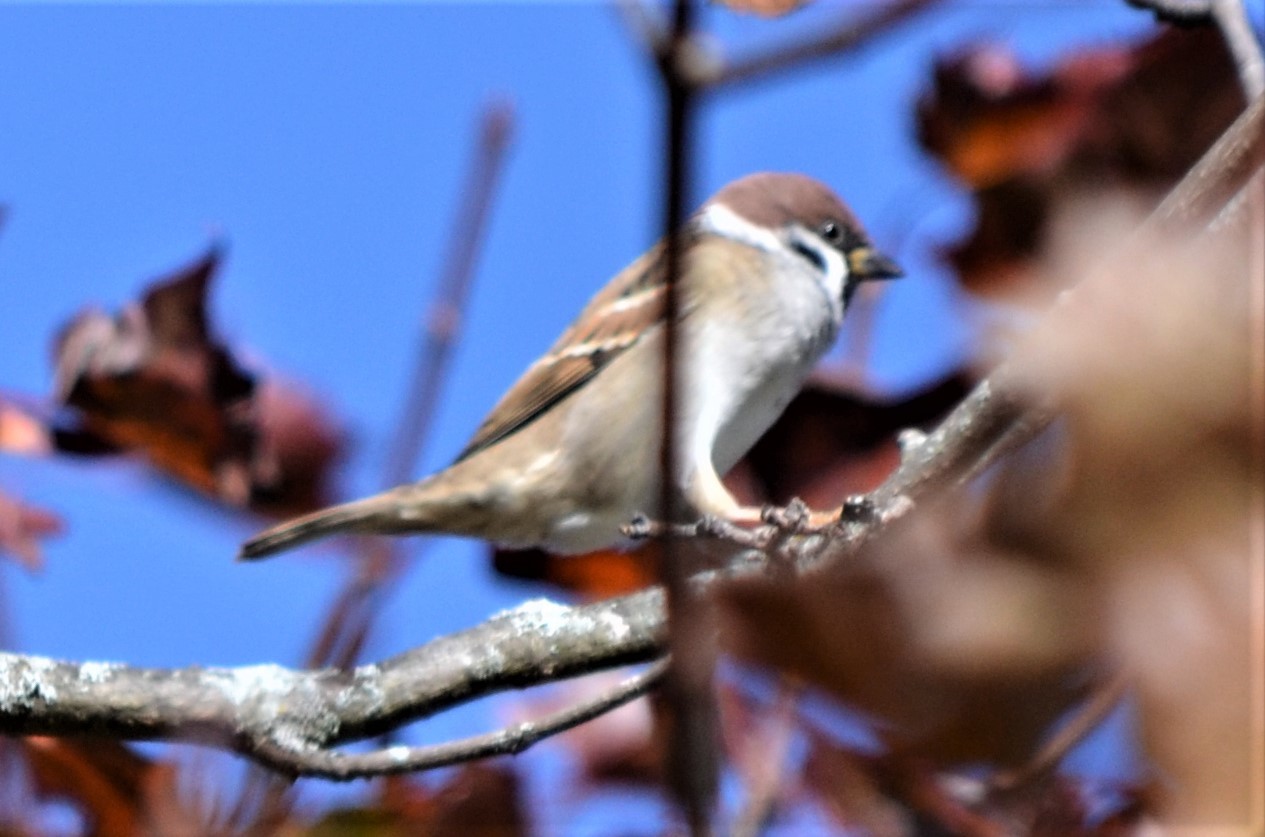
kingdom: Animalia
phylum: Chordata
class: Aves
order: Passeriformes
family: Passeridae
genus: Passer
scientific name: Passer montanus
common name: Eurasian tree sparrow
